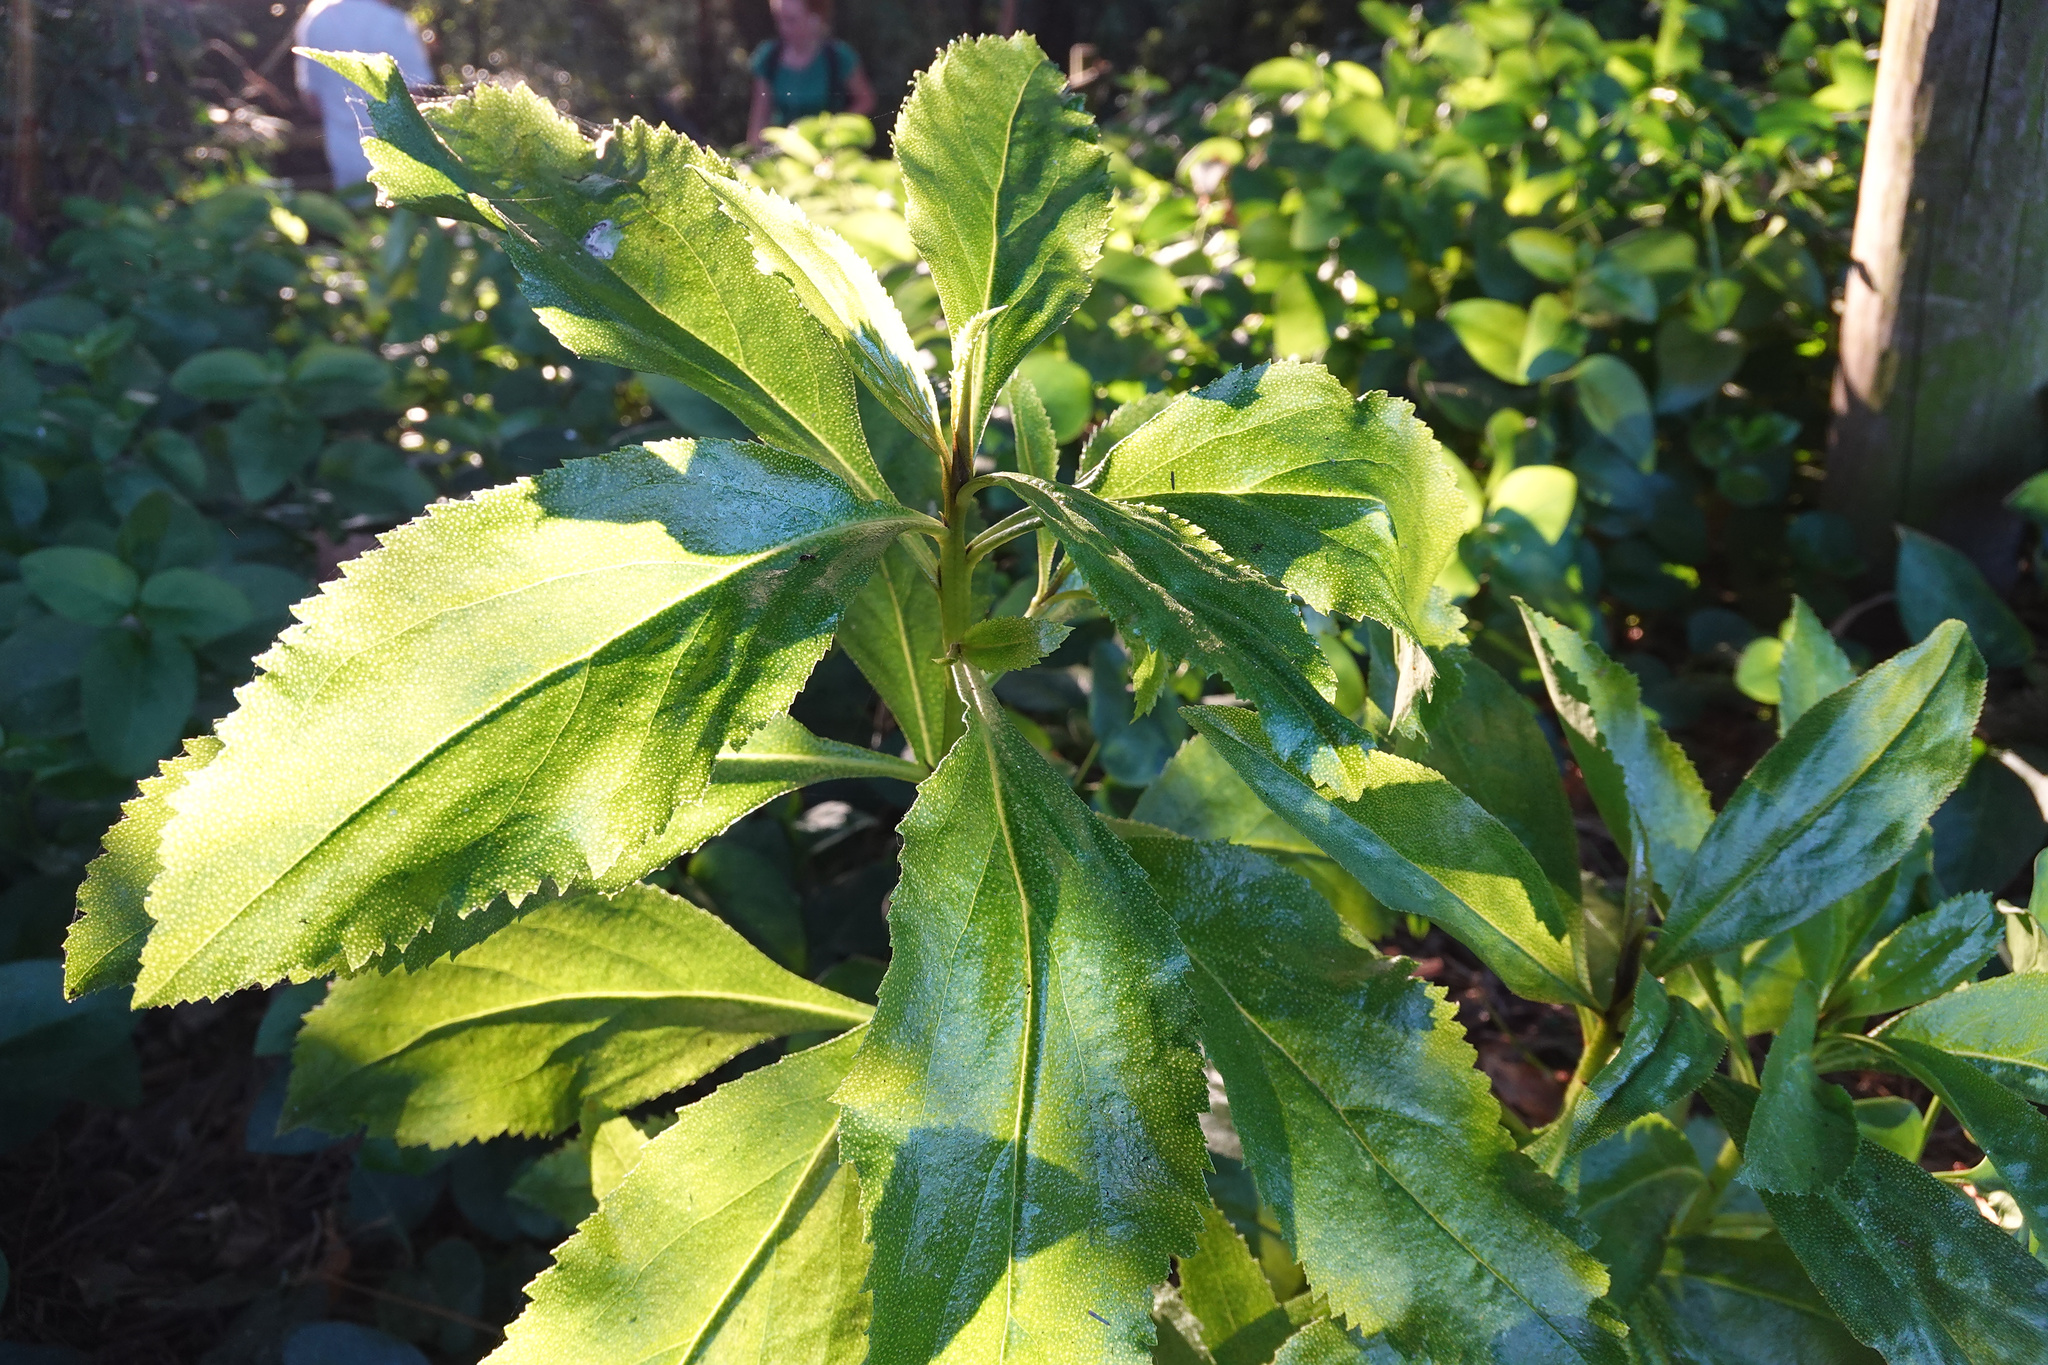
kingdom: Plantae
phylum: Tracheophyta
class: Magnoliopsida
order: Lamiales
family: Scrophulariaceae
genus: Myoporum
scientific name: Myoporum laetum
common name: Ngaio tree
